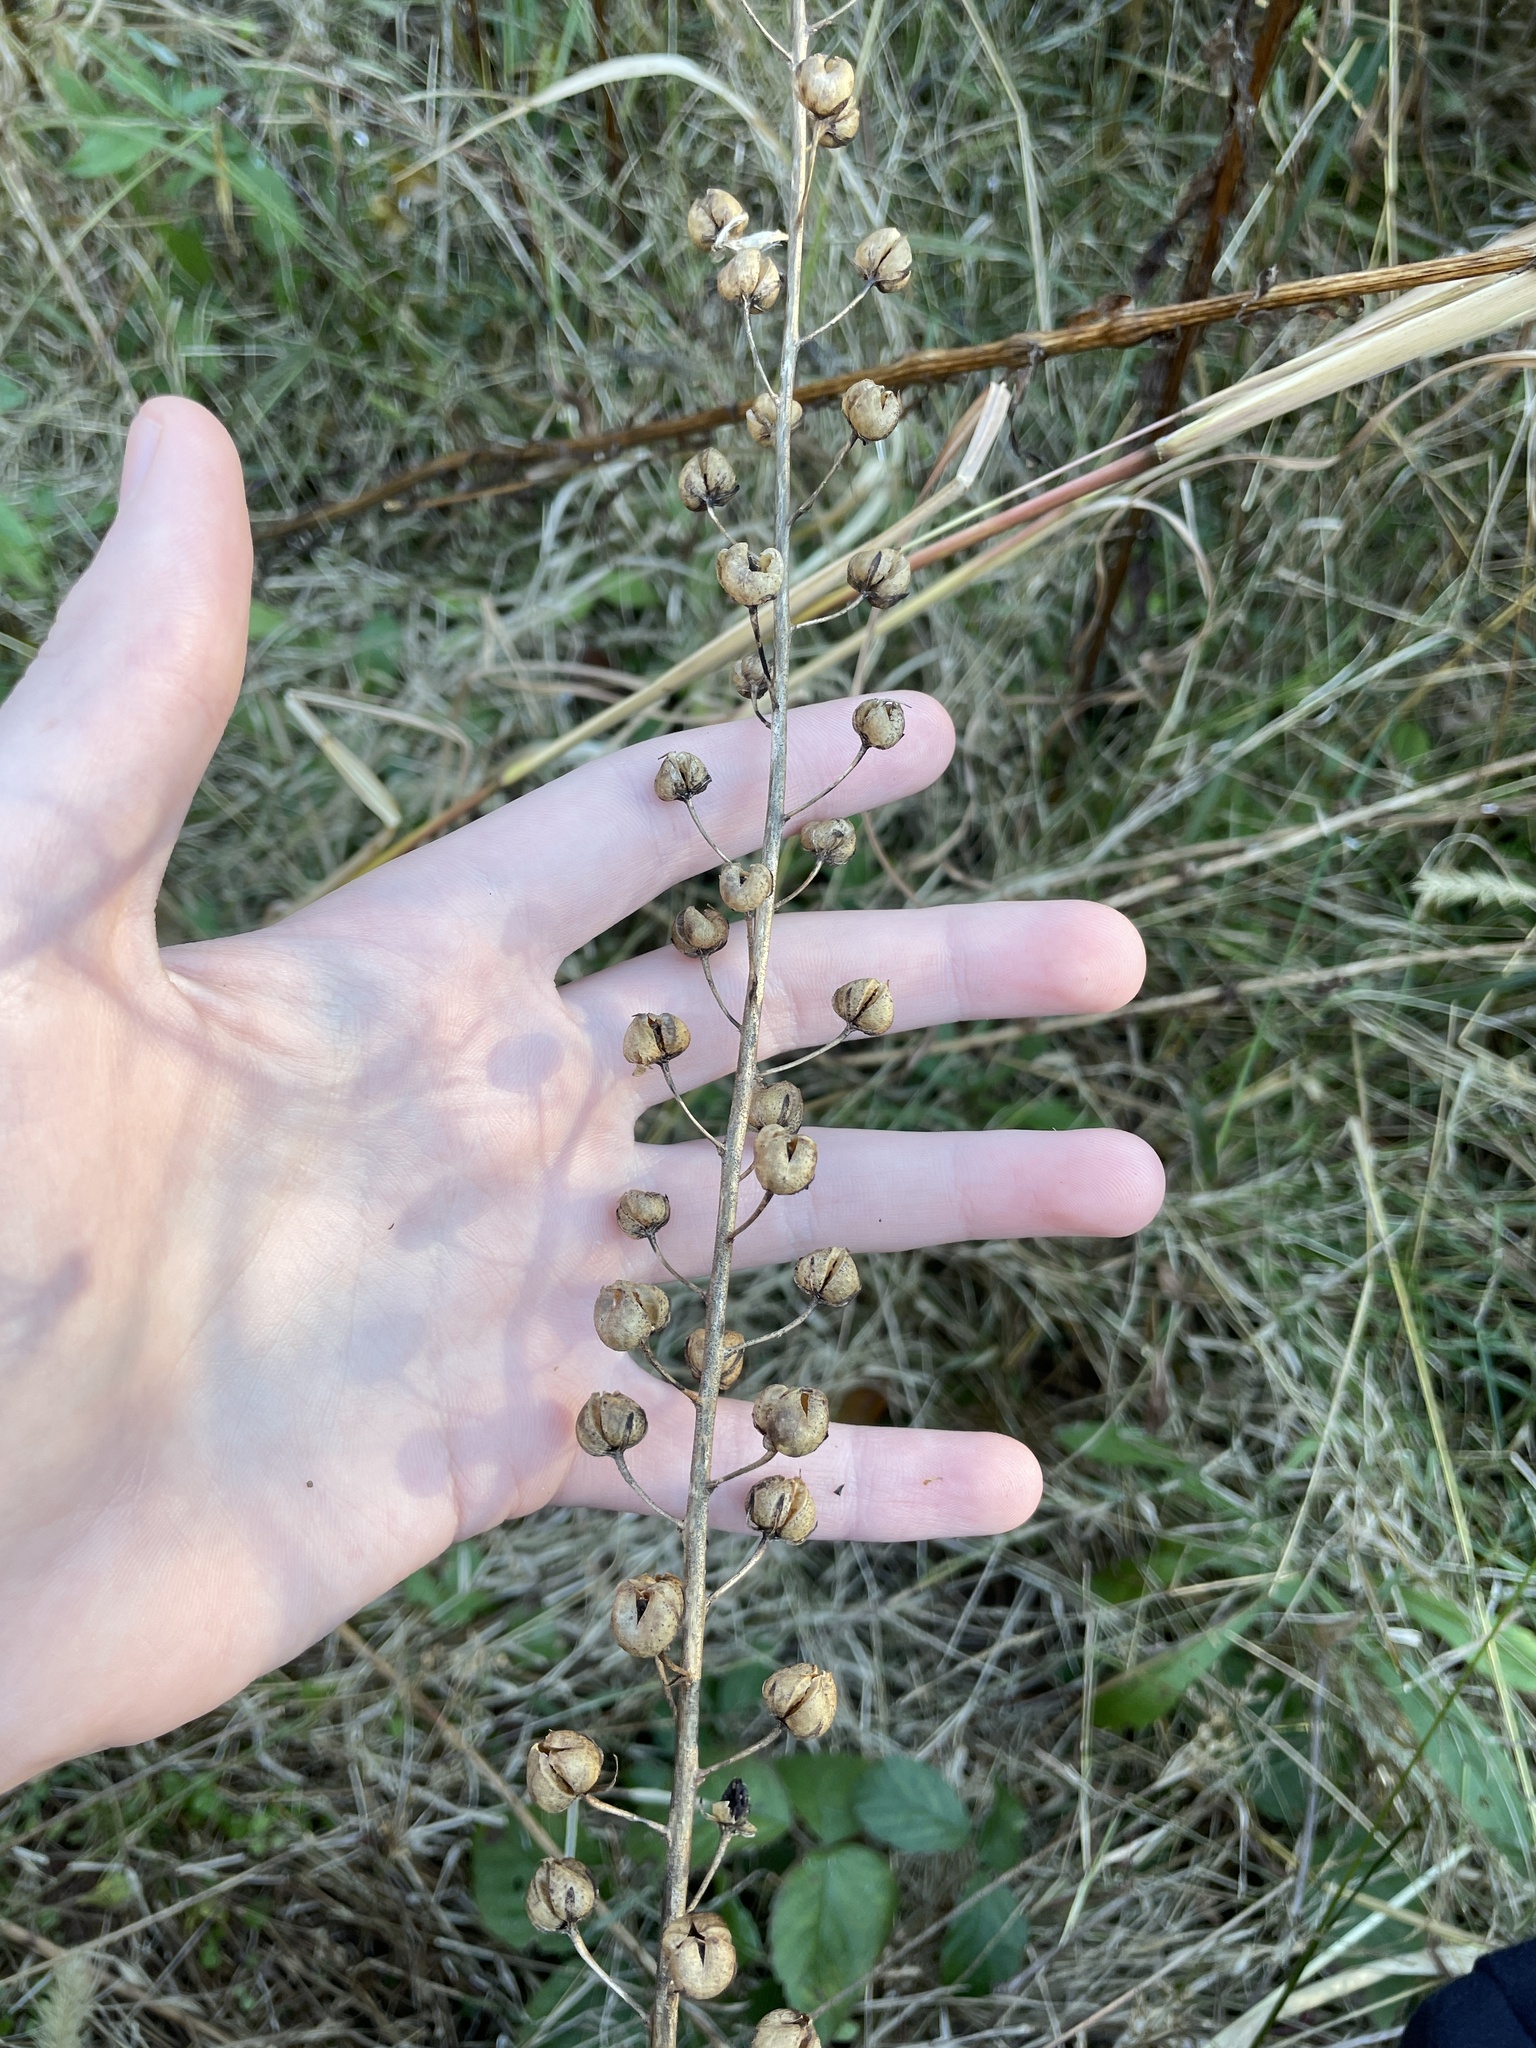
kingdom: Plantae
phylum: Tracheophyta
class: Magnoliopsida
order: Lamiales
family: Scrophulariaceae
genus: Verbascum
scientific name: Verbascum blattaria
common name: Moth mullein
